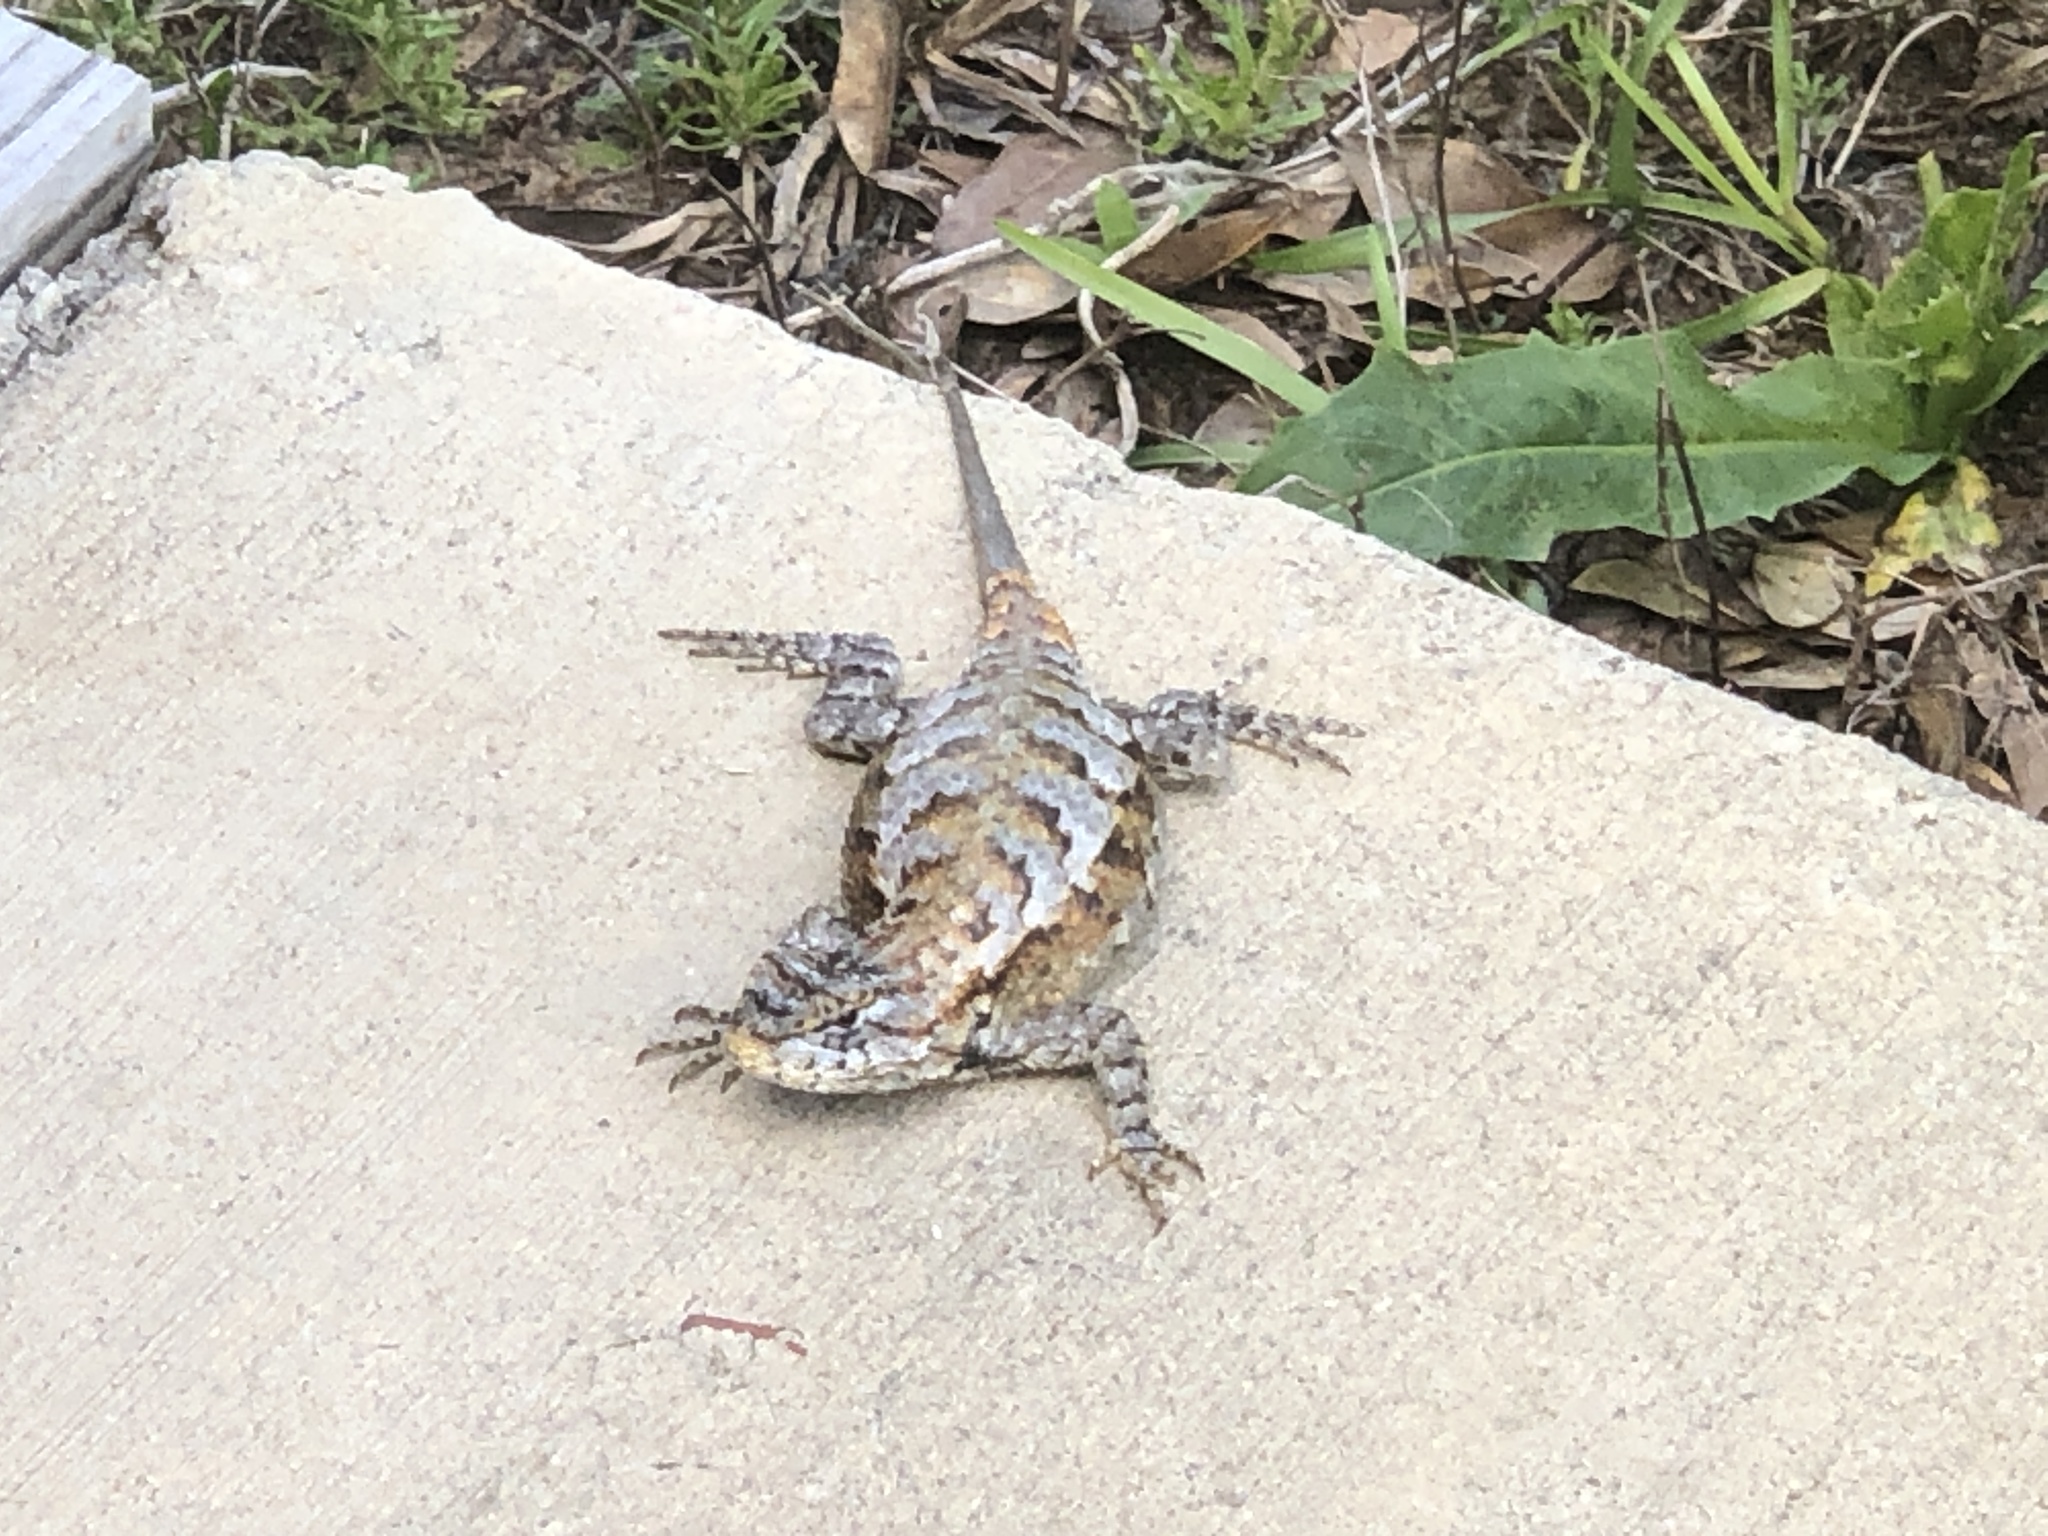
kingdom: Animalia
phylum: Chordata
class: Squamata
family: Phrynosomatidae
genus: Sceloporus
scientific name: Sceloporus undulatus
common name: Eastern fence lizard
